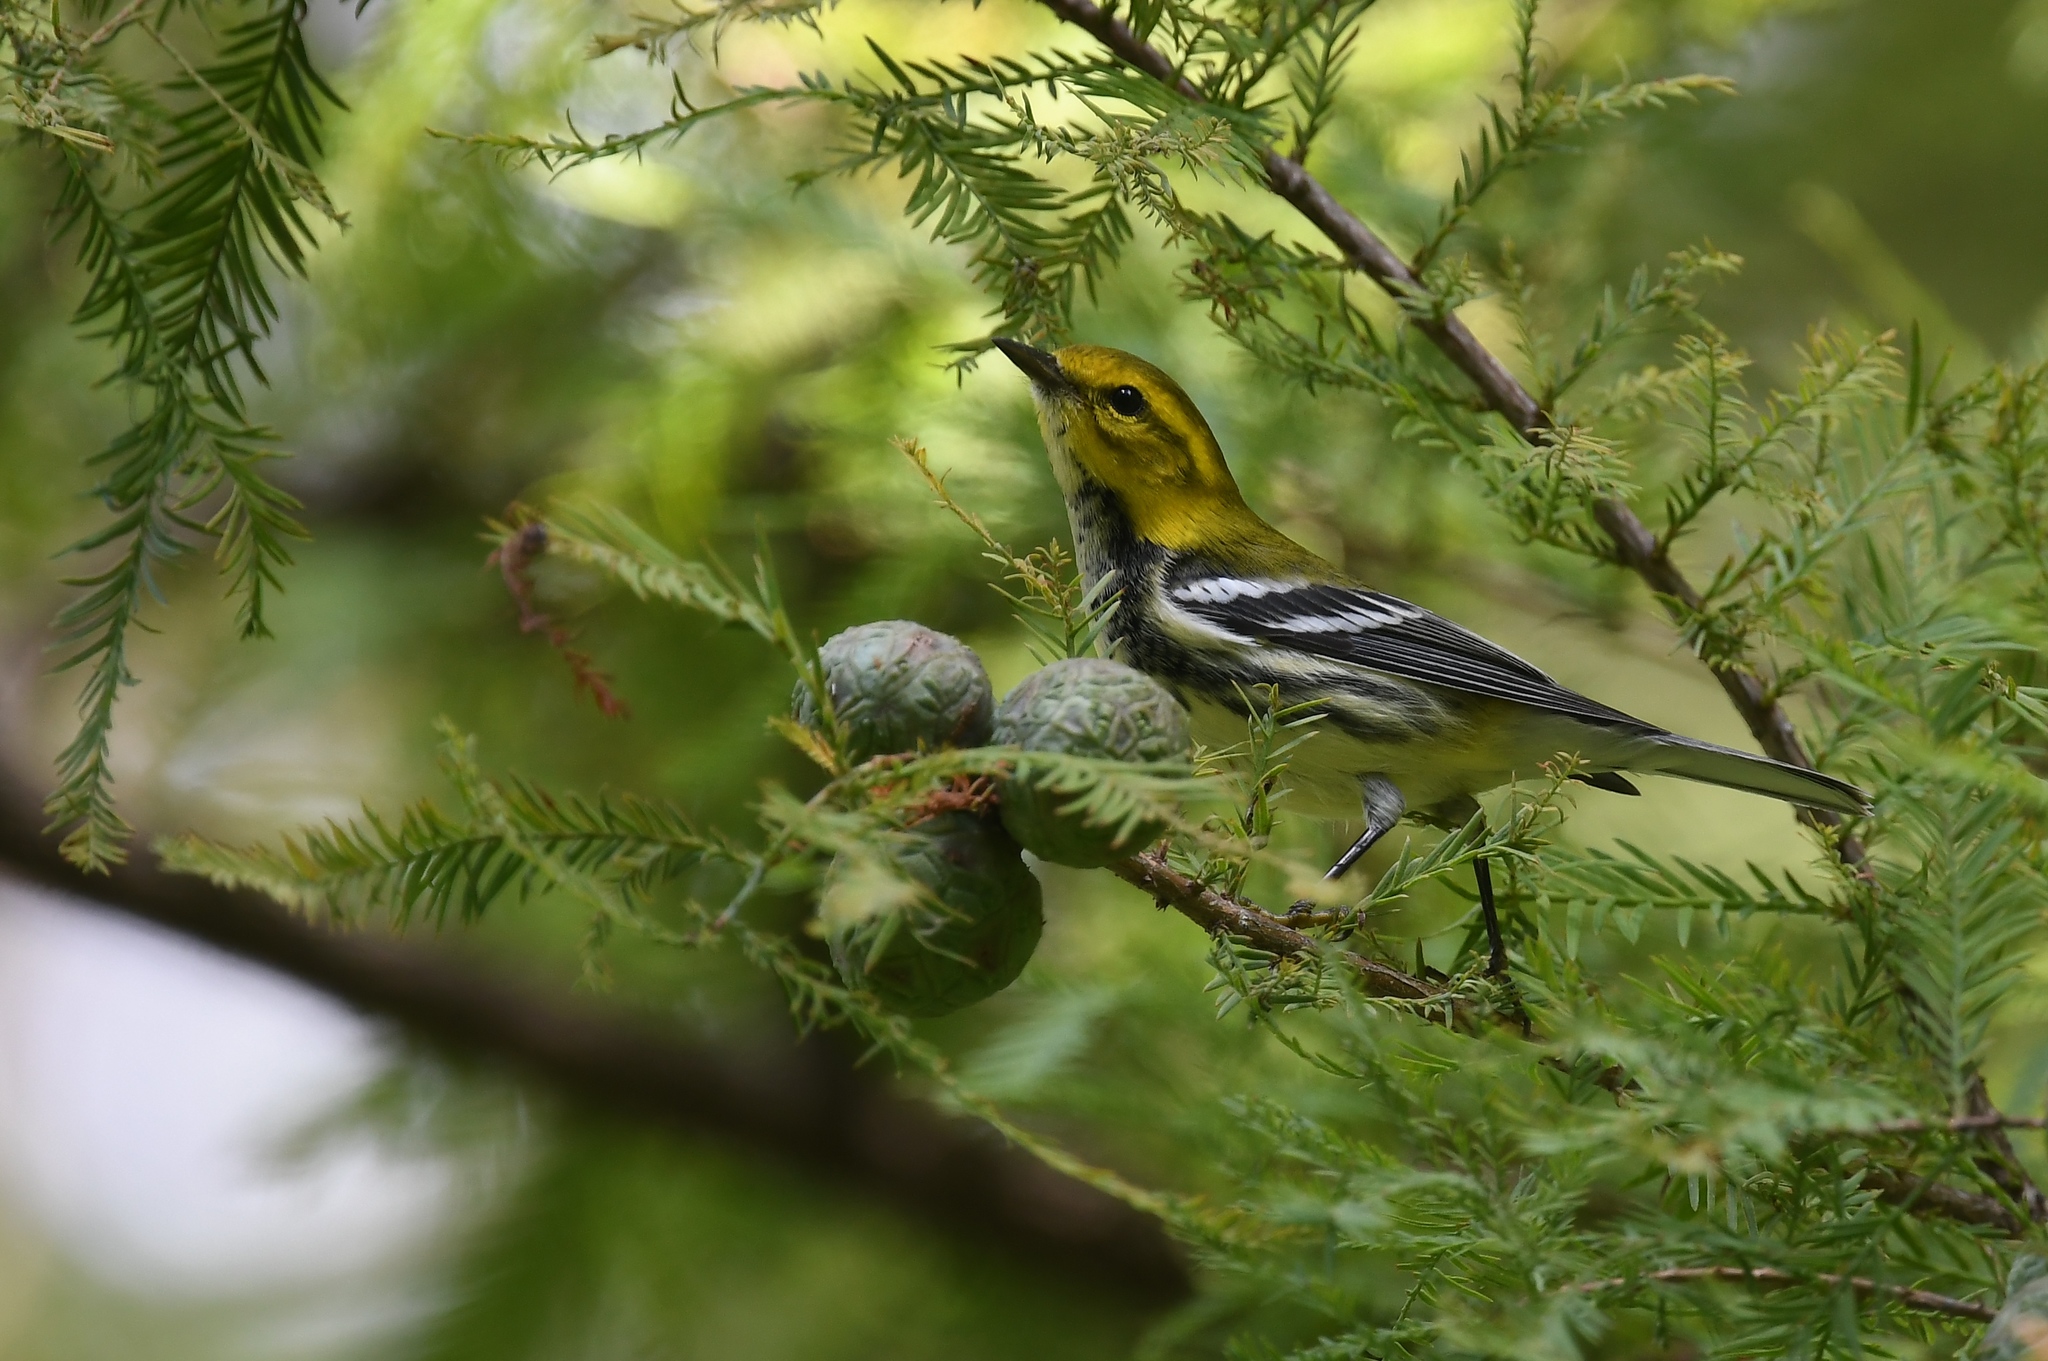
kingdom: Animalia
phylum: Chordata
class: Aves
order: Passeriformes
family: Parulidae
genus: Setophaga
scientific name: Setophaga virens
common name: Black-throated green warbler
